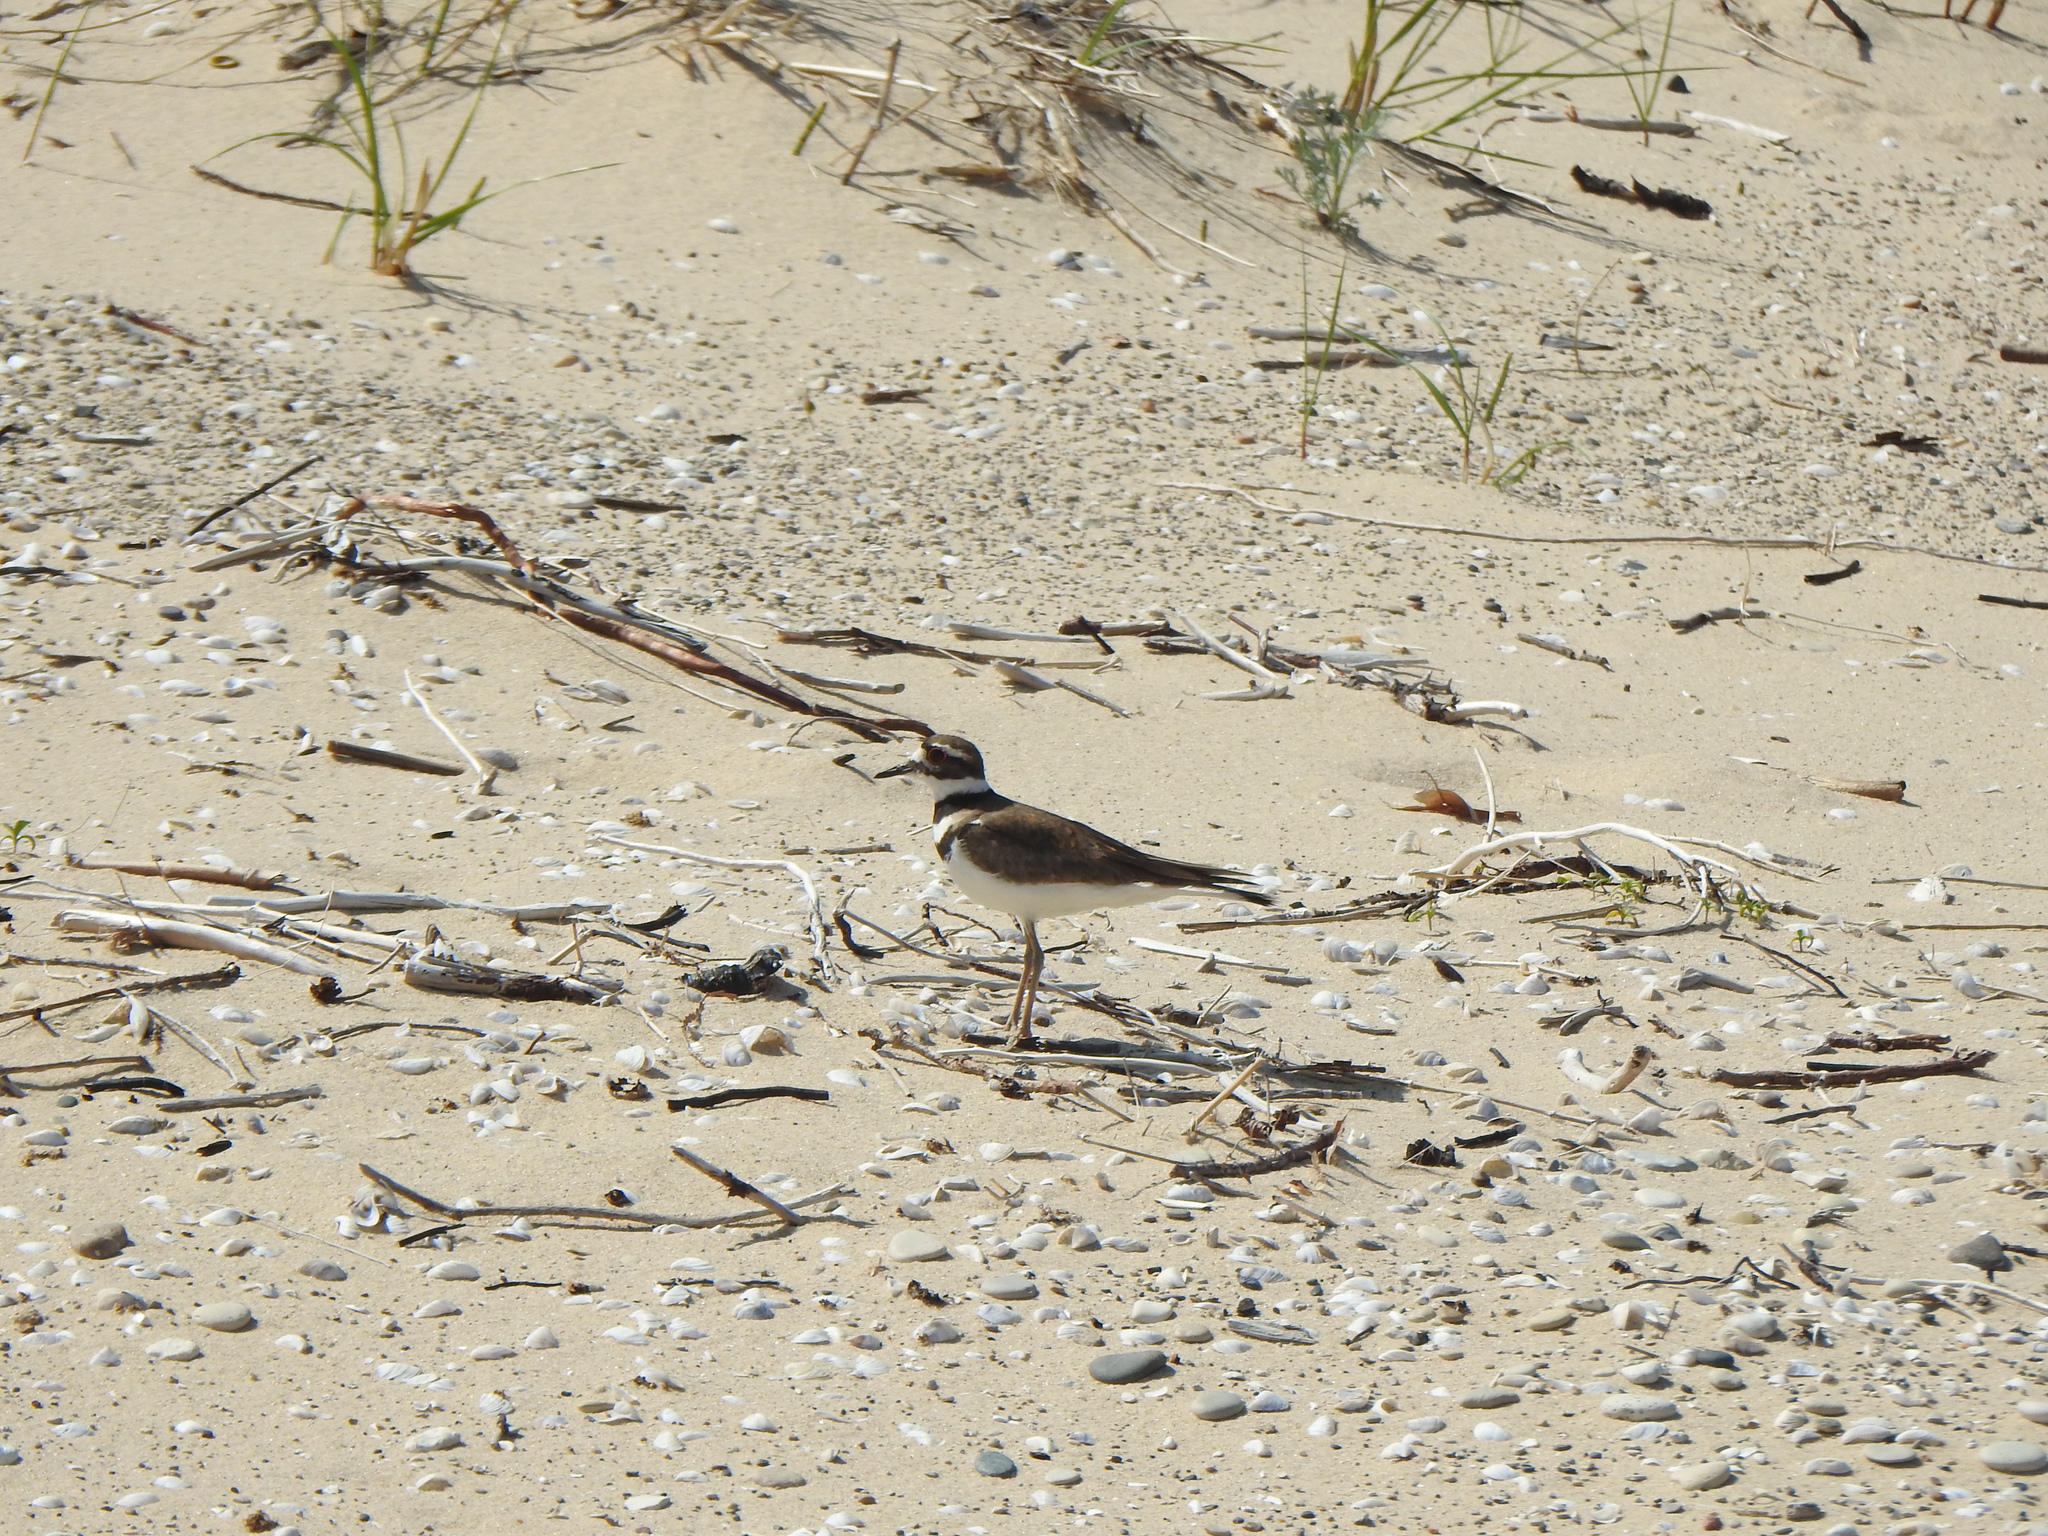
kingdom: Animalia
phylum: Chordata
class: Aves
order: Charadriiformes
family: Charadriidae
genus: Charadrius
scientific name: Charadrius vociferus
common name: Killdeer
